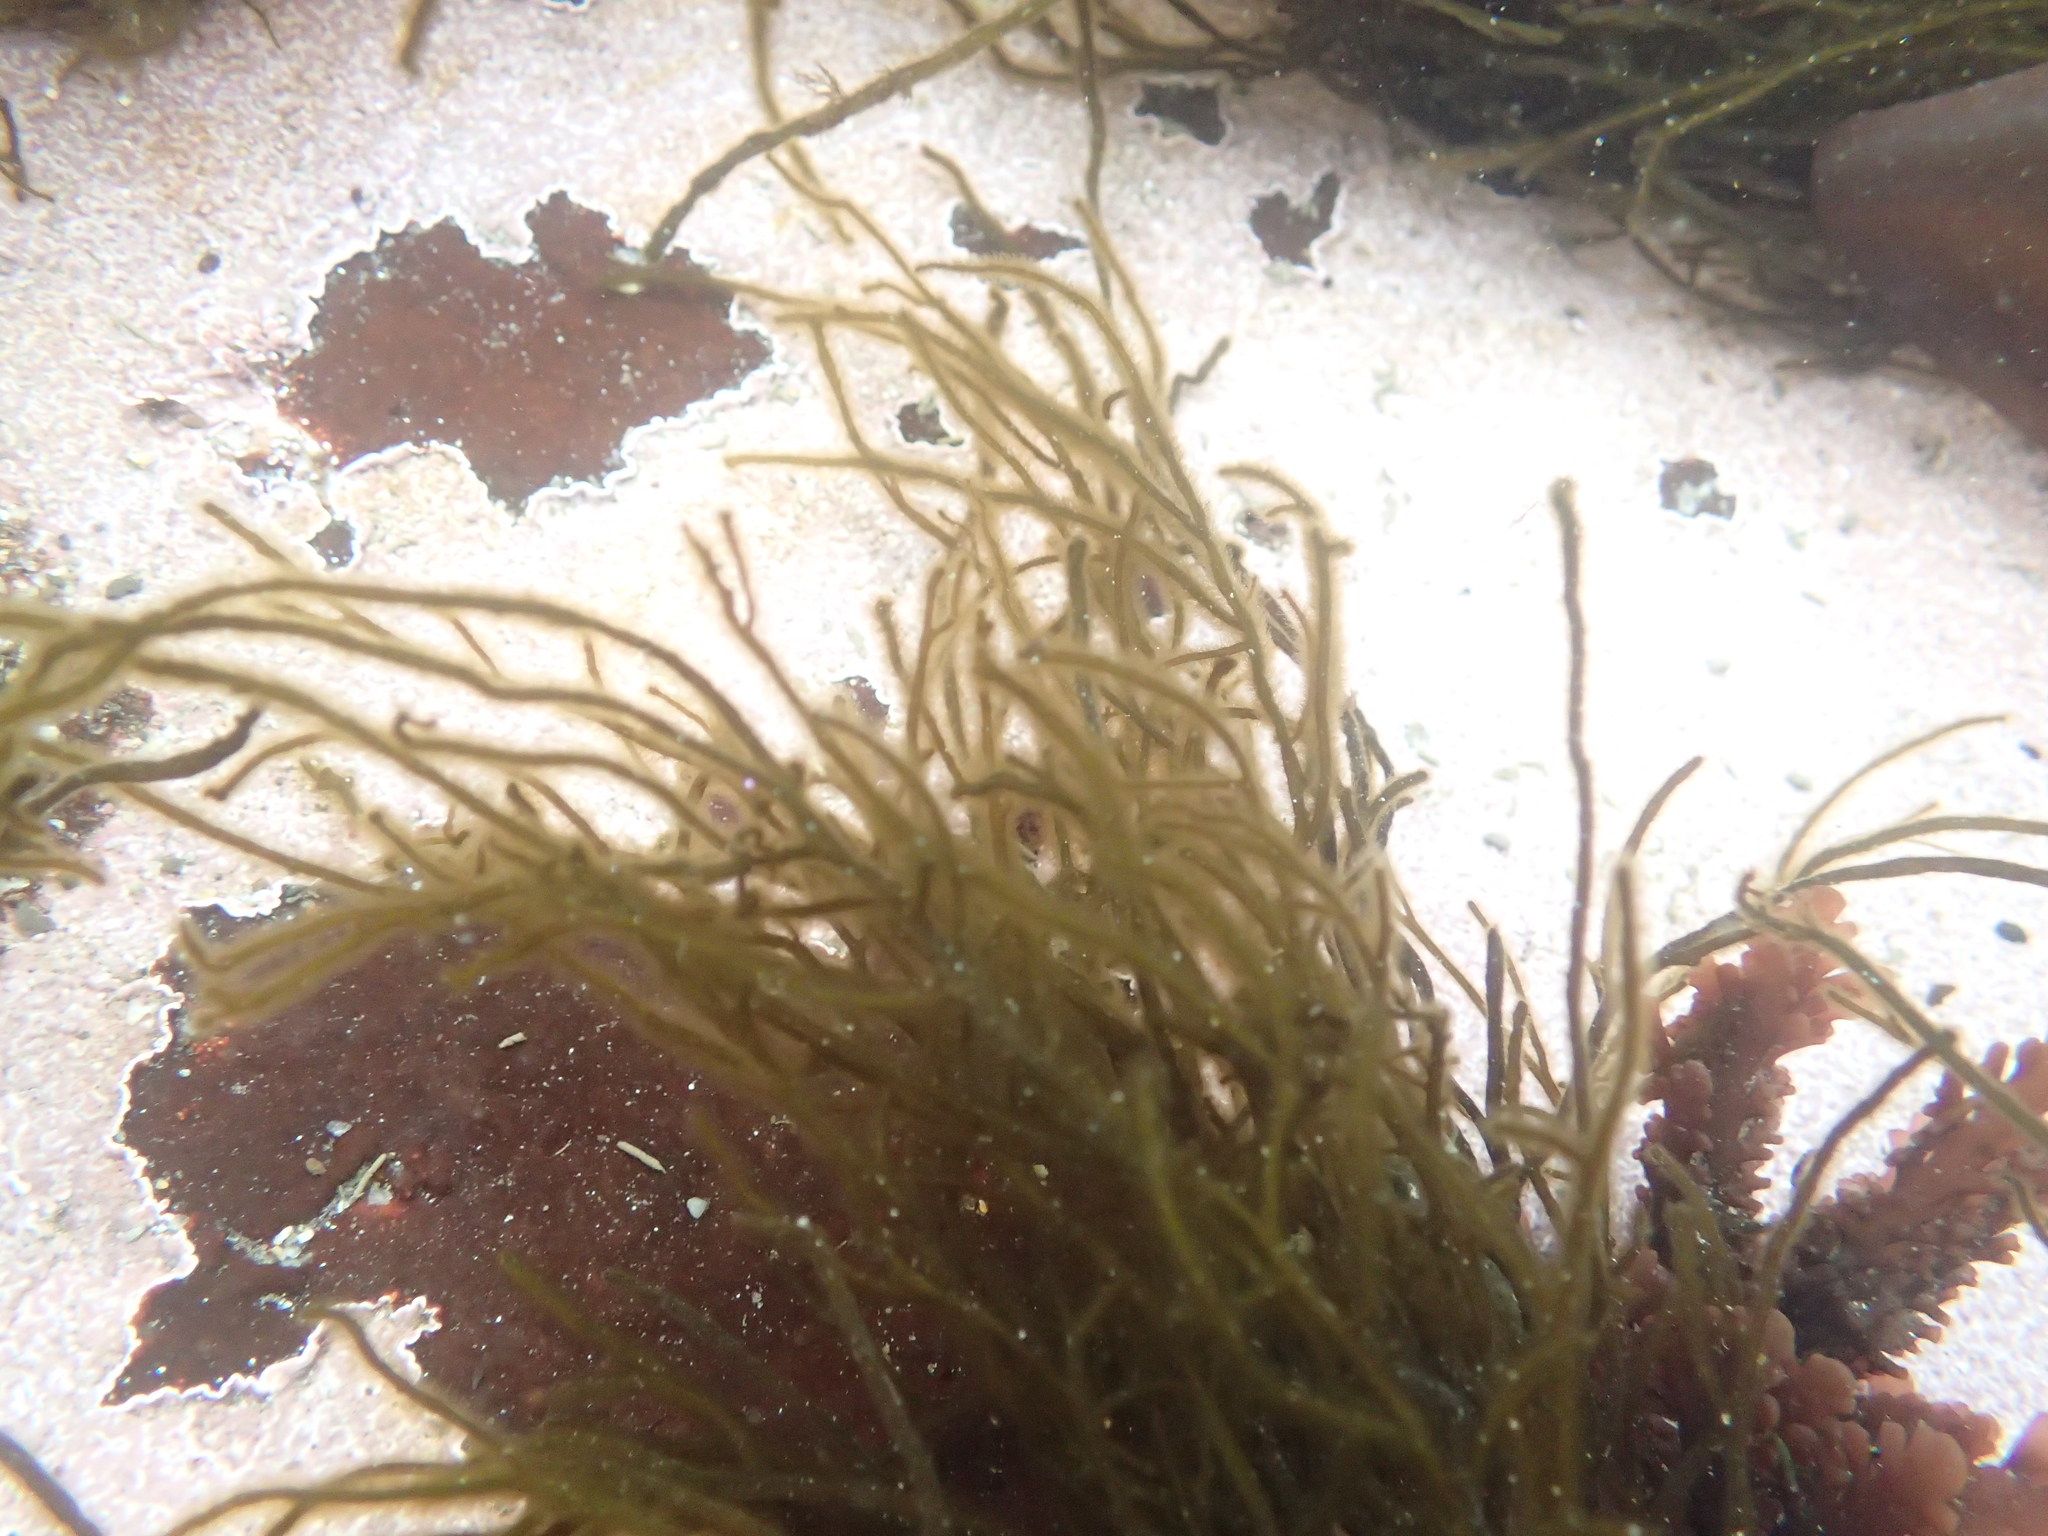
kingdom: Chromista
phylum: Ochrophyta
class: Phaeophyceae
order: Ectocarpales
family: Chordariaceae
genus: Haplogloia
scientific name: Haplogloia andersonii
